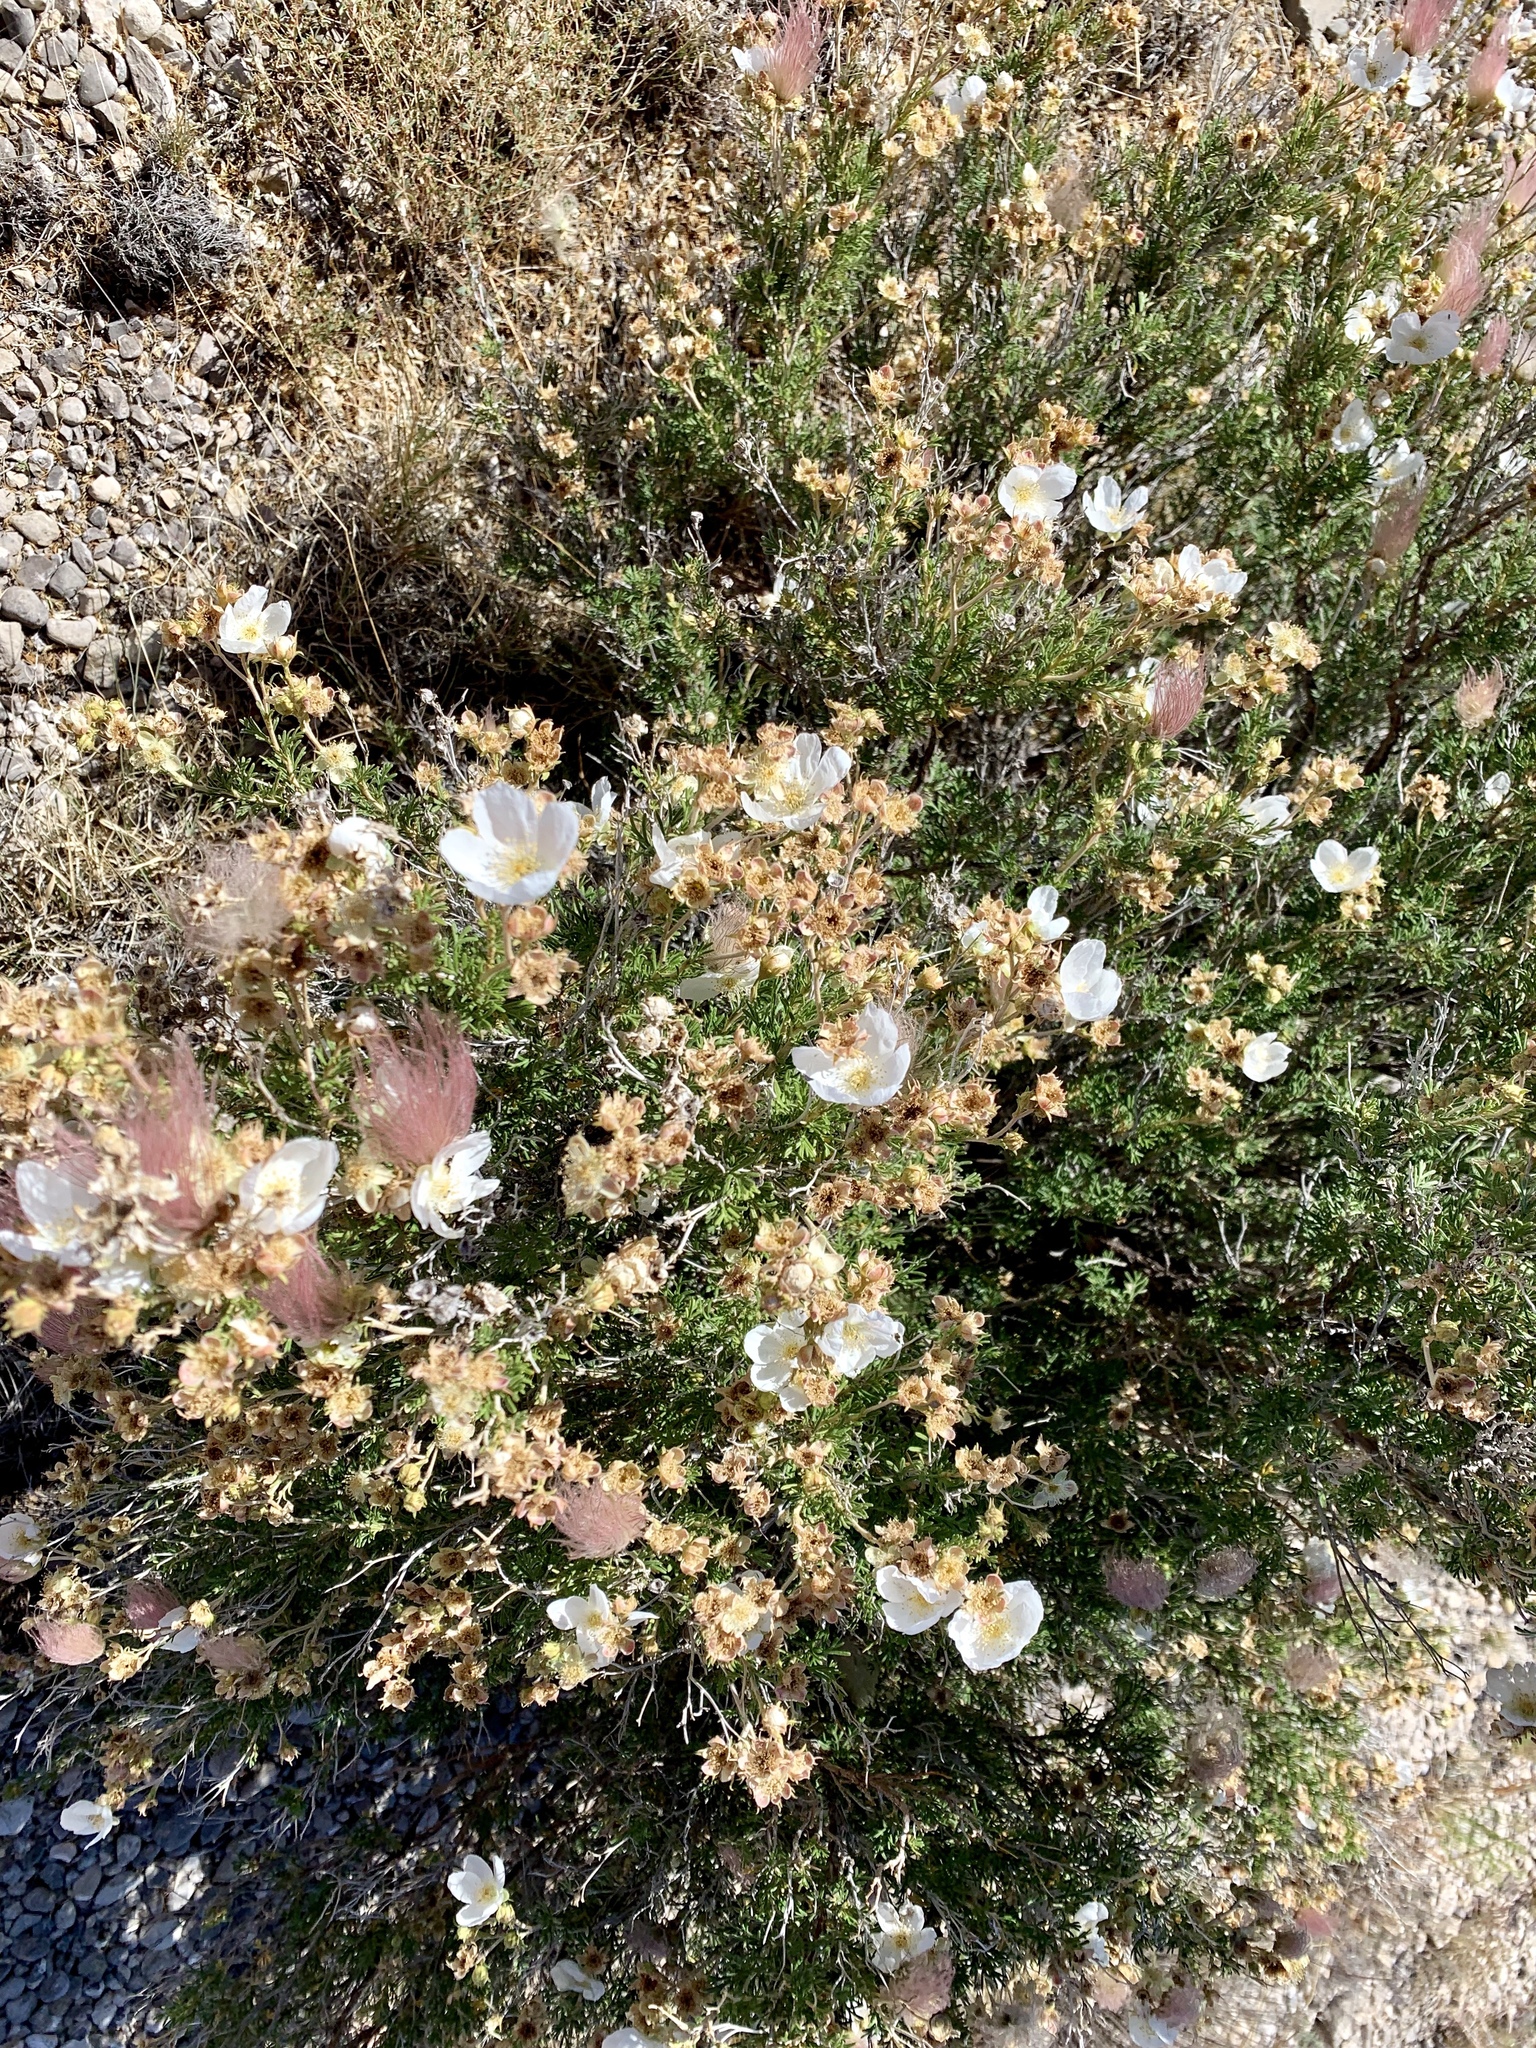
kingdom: Plantae
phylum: Tracheophyta
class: Magnoliopsida
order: Rosales
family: Rosaceae
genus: Fallugia
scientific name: Fallugia paradoxa
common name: Apache-plume
